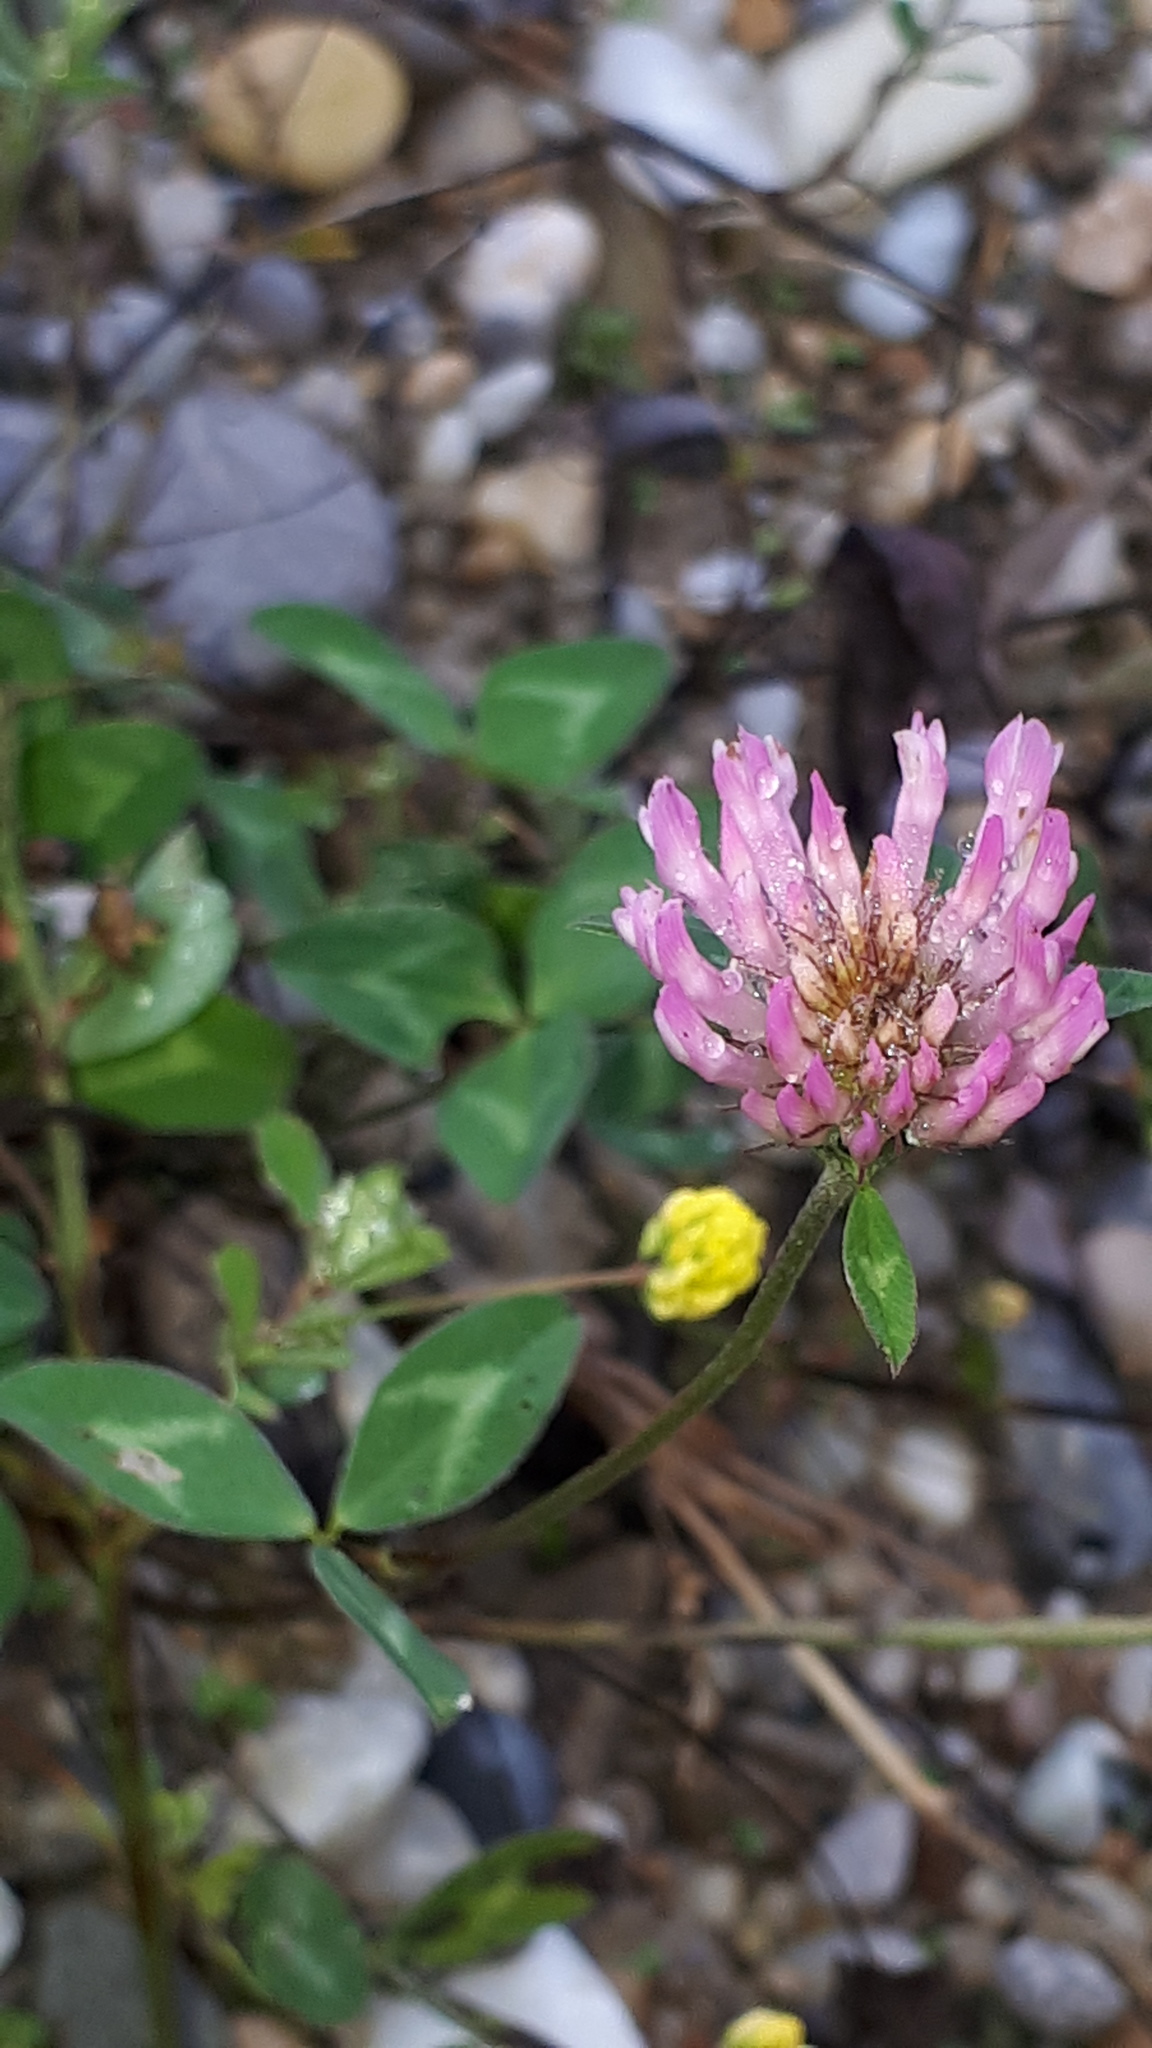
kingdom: Plantae
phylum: Tracheophyta
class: Magnoliopsida
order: Fabales
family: Fabaceae
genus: Trifolium
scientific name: Trifolium pratense
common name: Red clover
